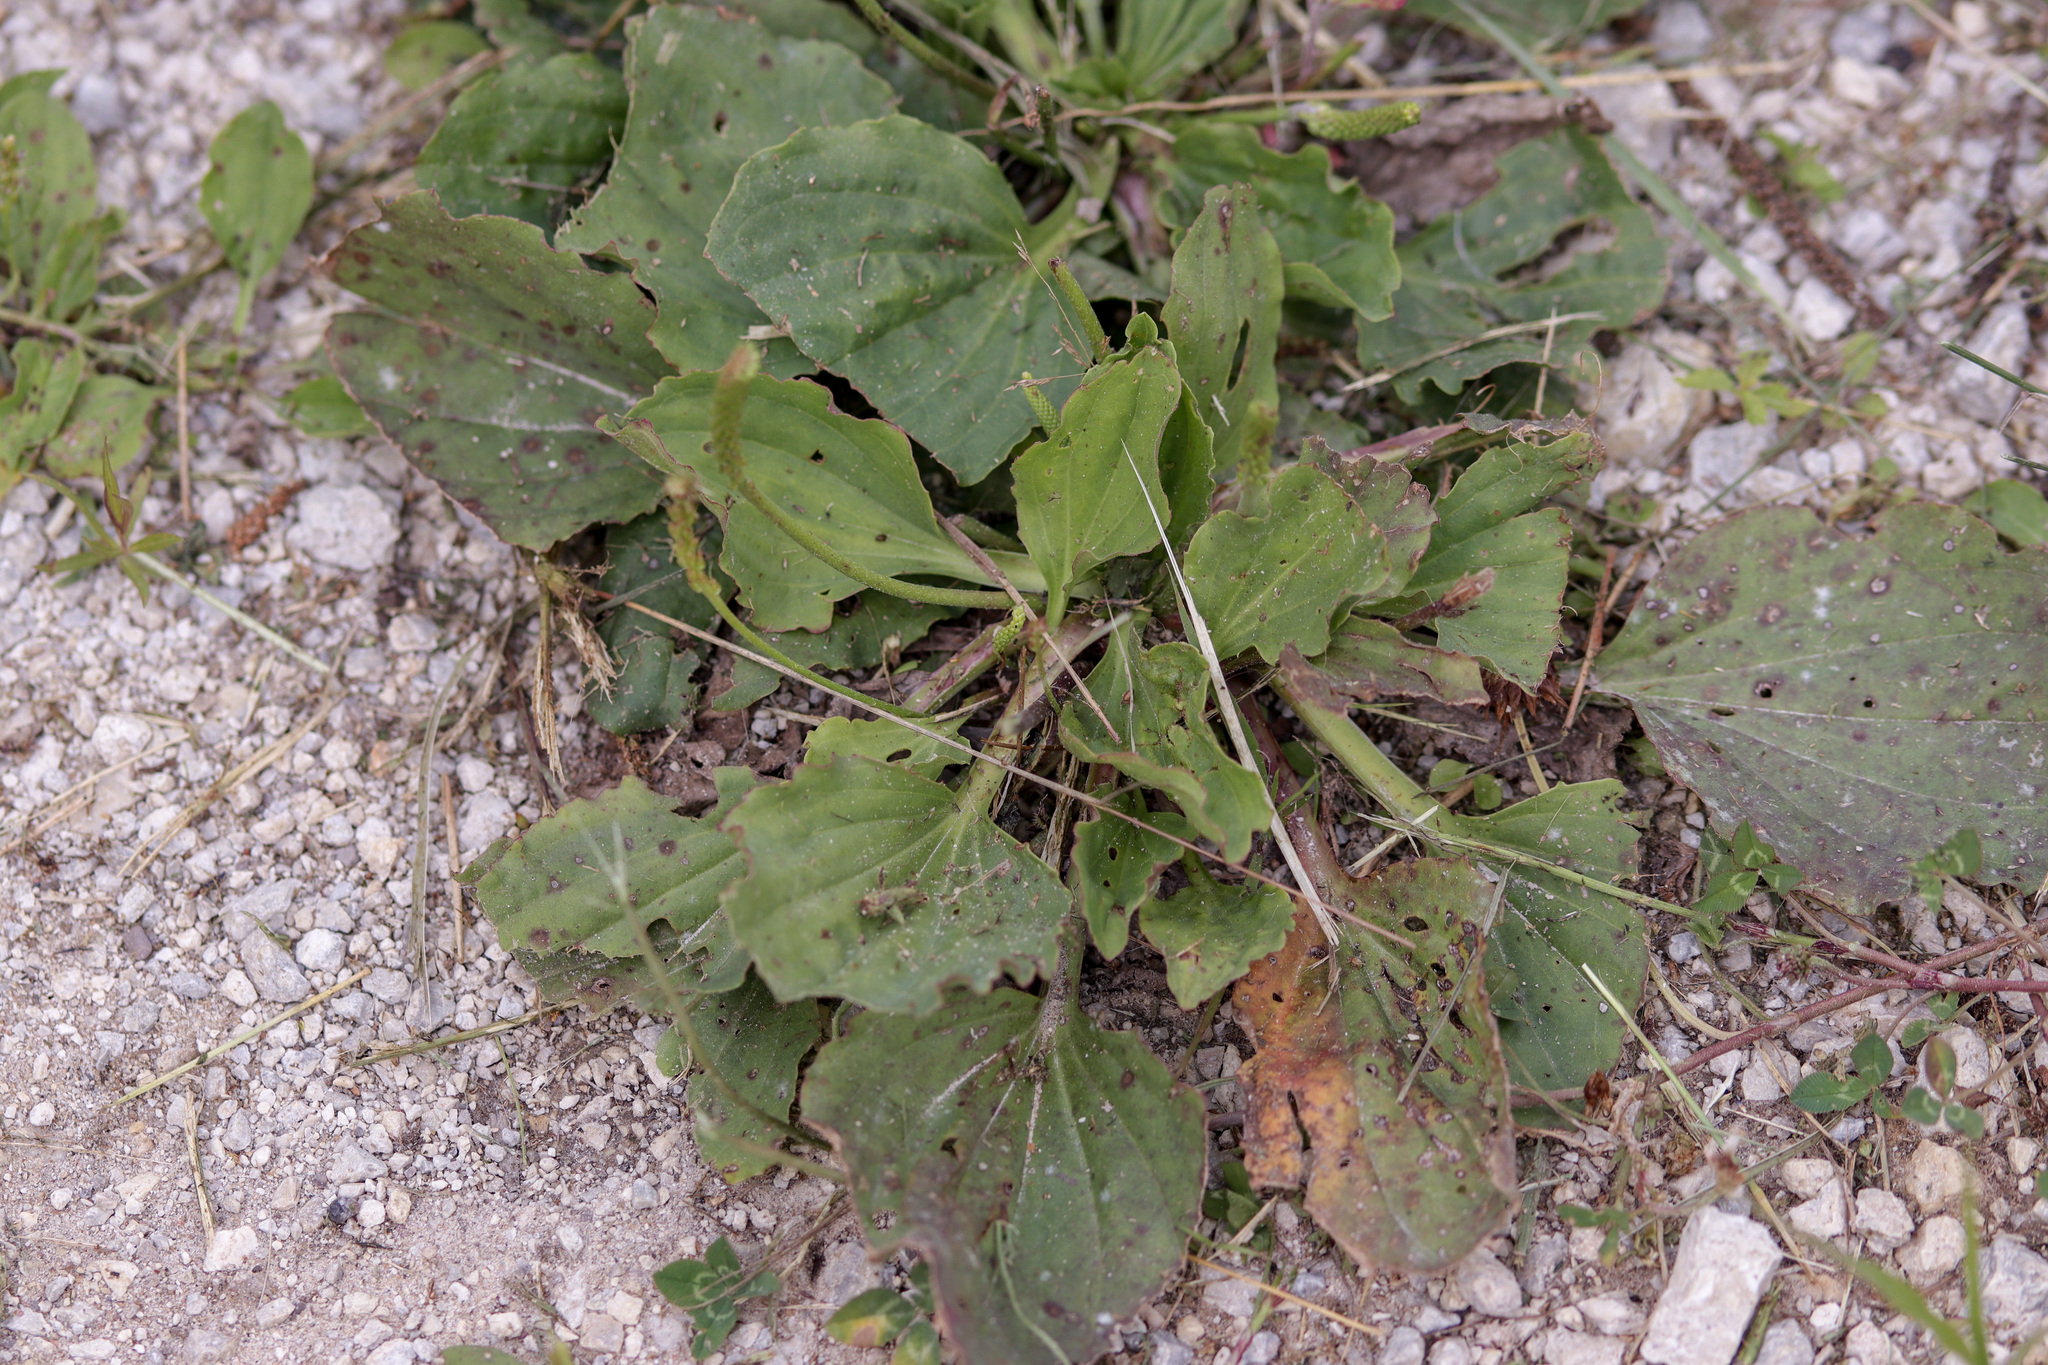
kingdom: Plantae
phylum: Tracheophyta
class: Magnoliopsida
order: Lamiales
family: Plantaginaceae
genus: Plantago
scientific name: Plantago major
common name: Common plantain
